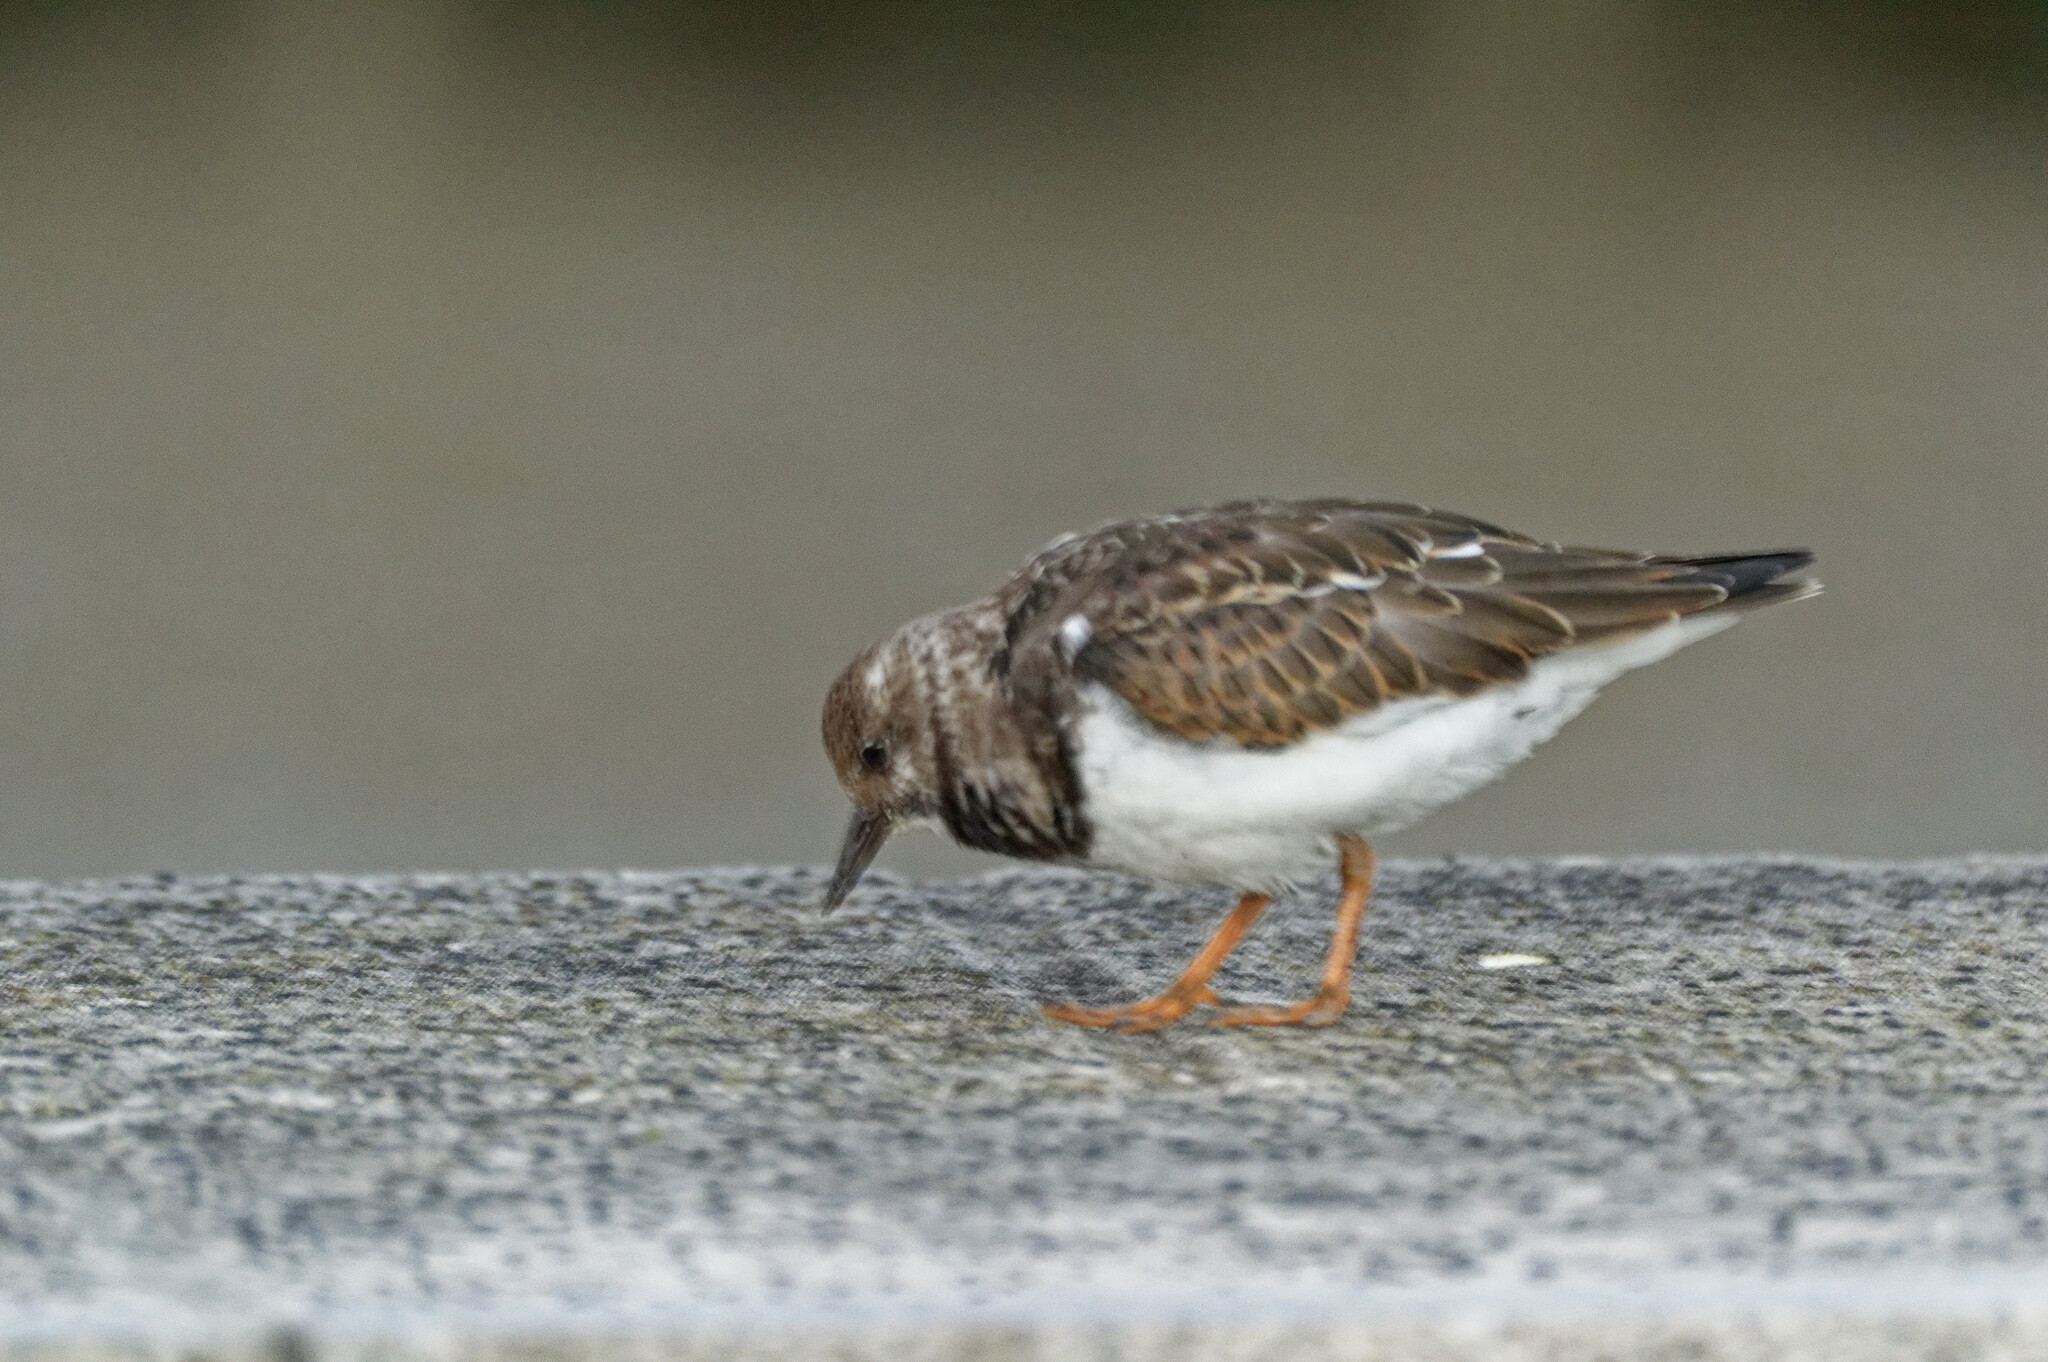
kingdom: Animalia
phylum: Chordata
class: Aves
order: Charadriiformes
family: Scolopacidae
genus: Arenaria
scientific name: Arenaria interpres
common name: Ruddy turnstone
